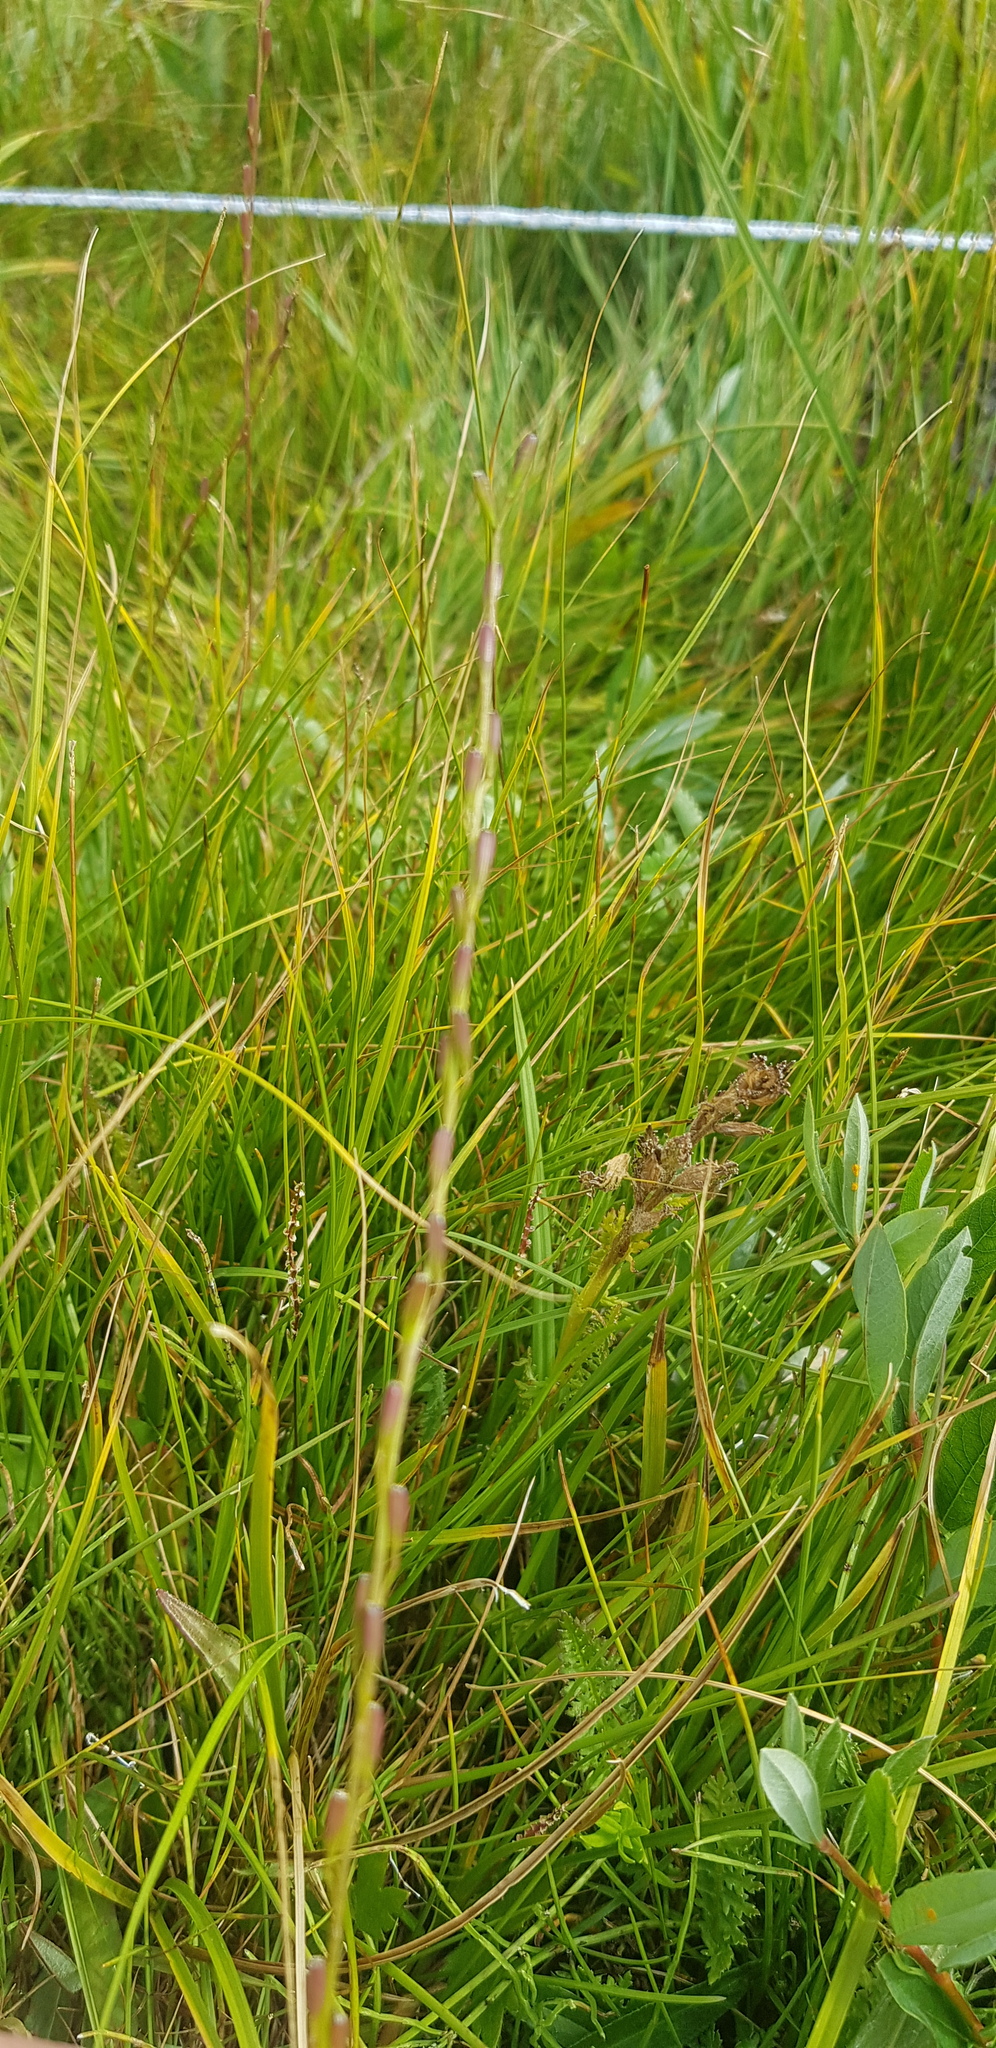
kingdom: Plantae
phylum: Tracheophyta
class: Liliopsida
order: Alismatales
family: Juncaginaceae
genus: Triglochin
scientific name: Triglochin palustris
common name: Marsh arrowgrass
